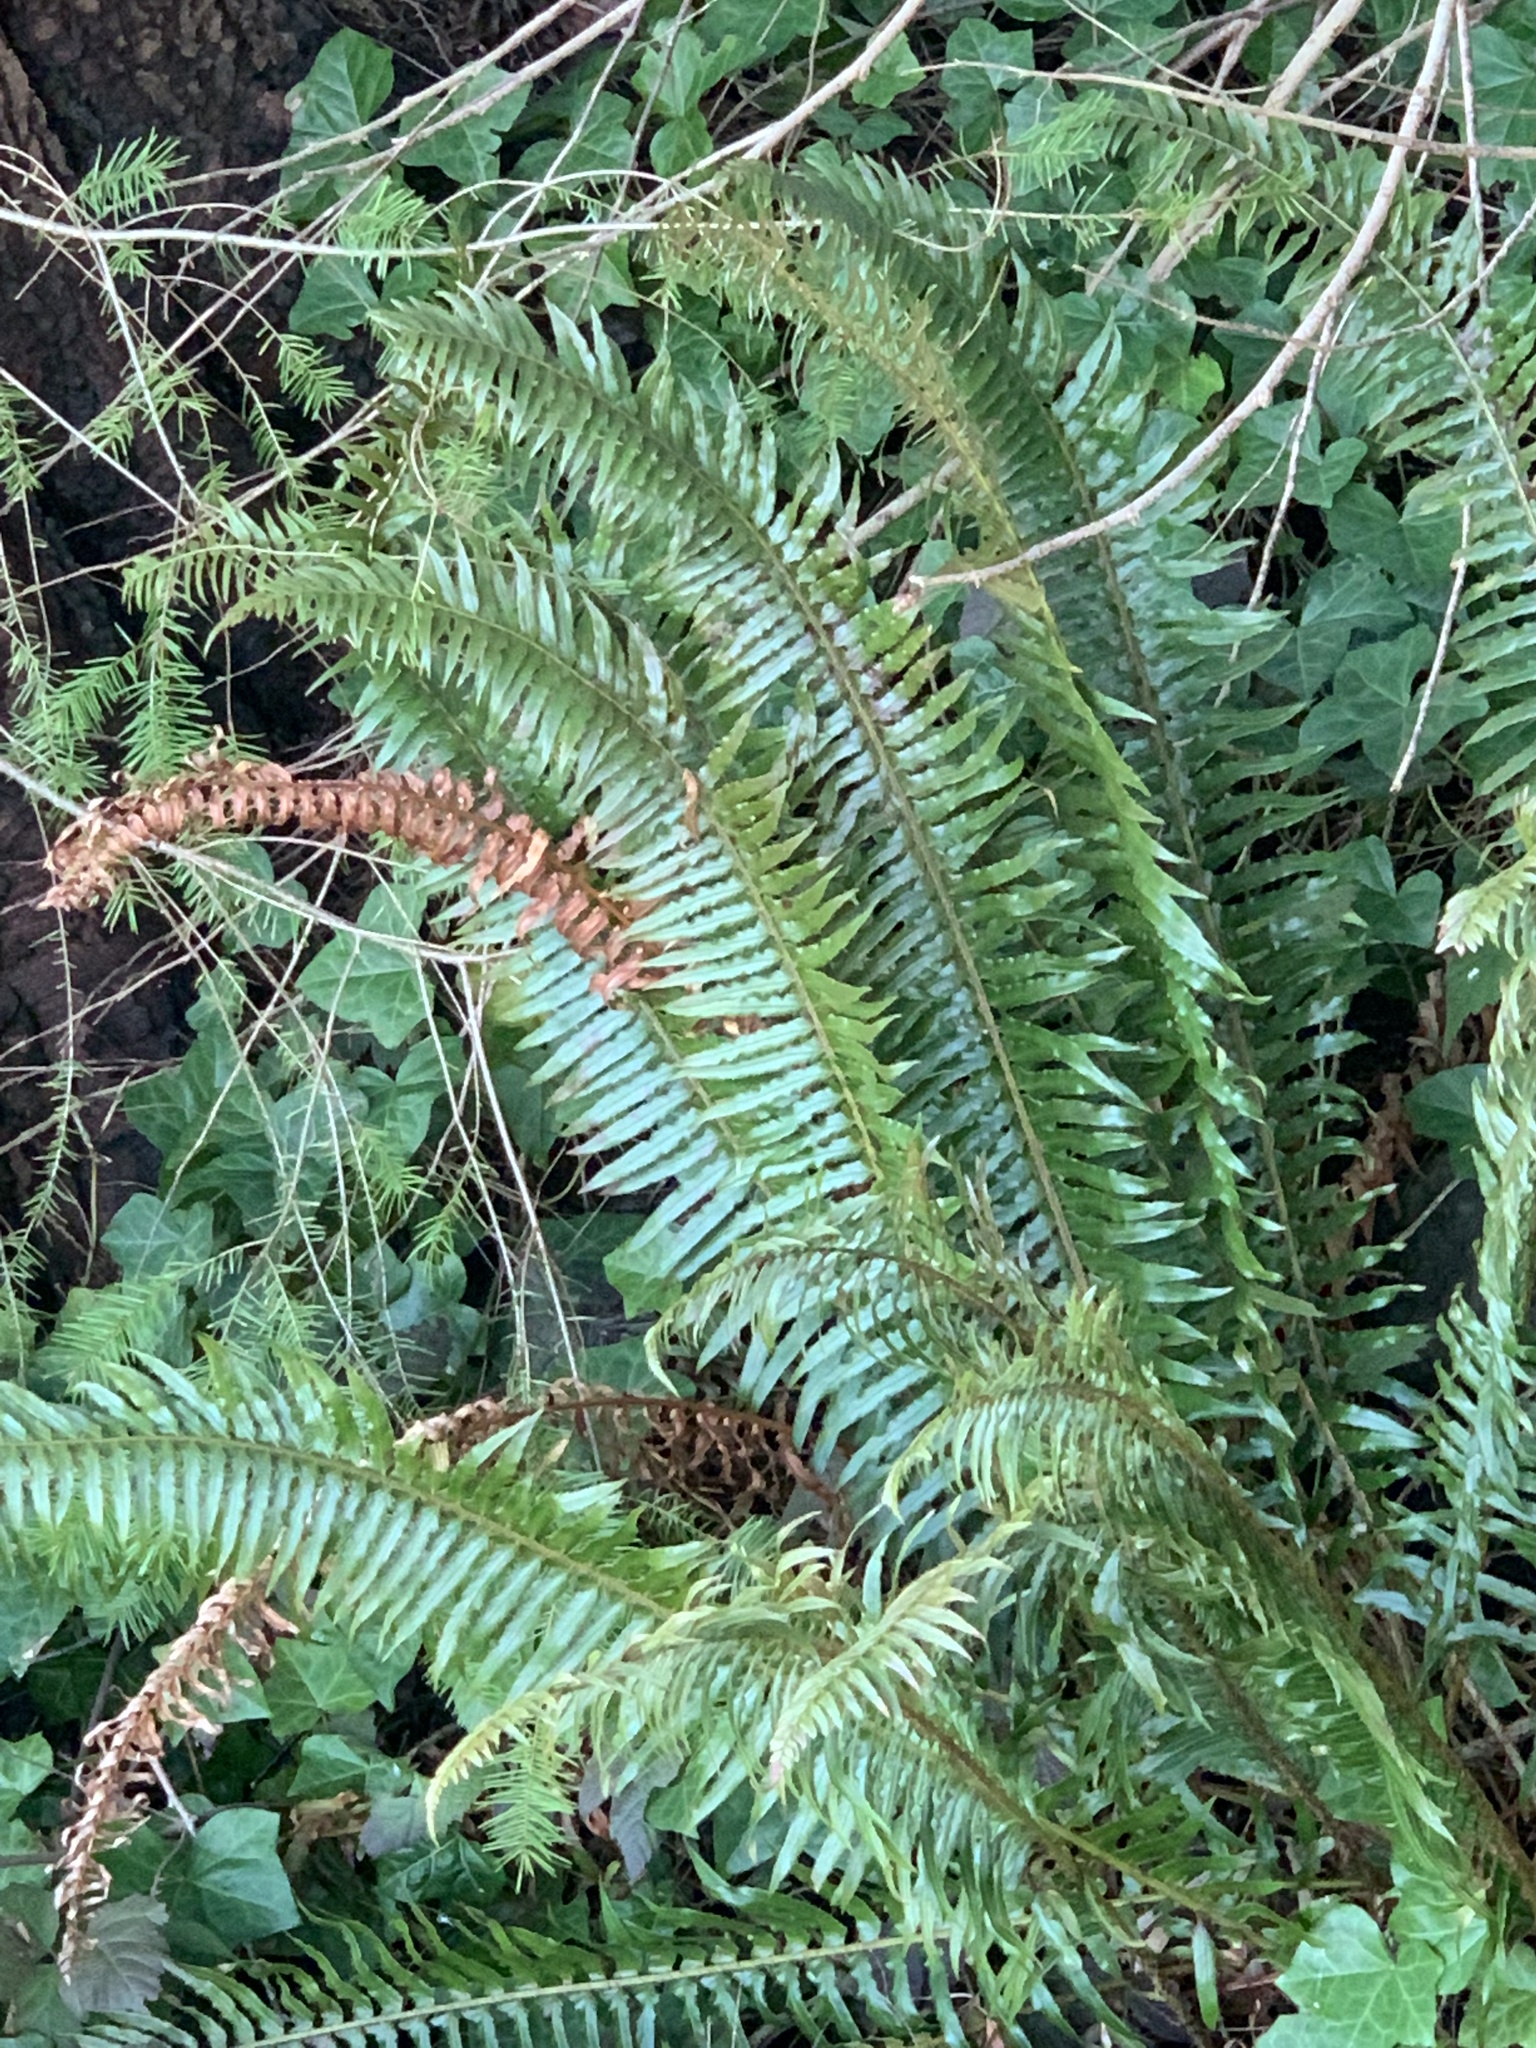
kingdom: Plantae
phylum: Tracheophyta
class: Polypodiopsida
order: Polypodiales
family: Dryopteridaceae
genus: Polystichum
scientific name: Polystichum munitum
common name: Western sword-fern
